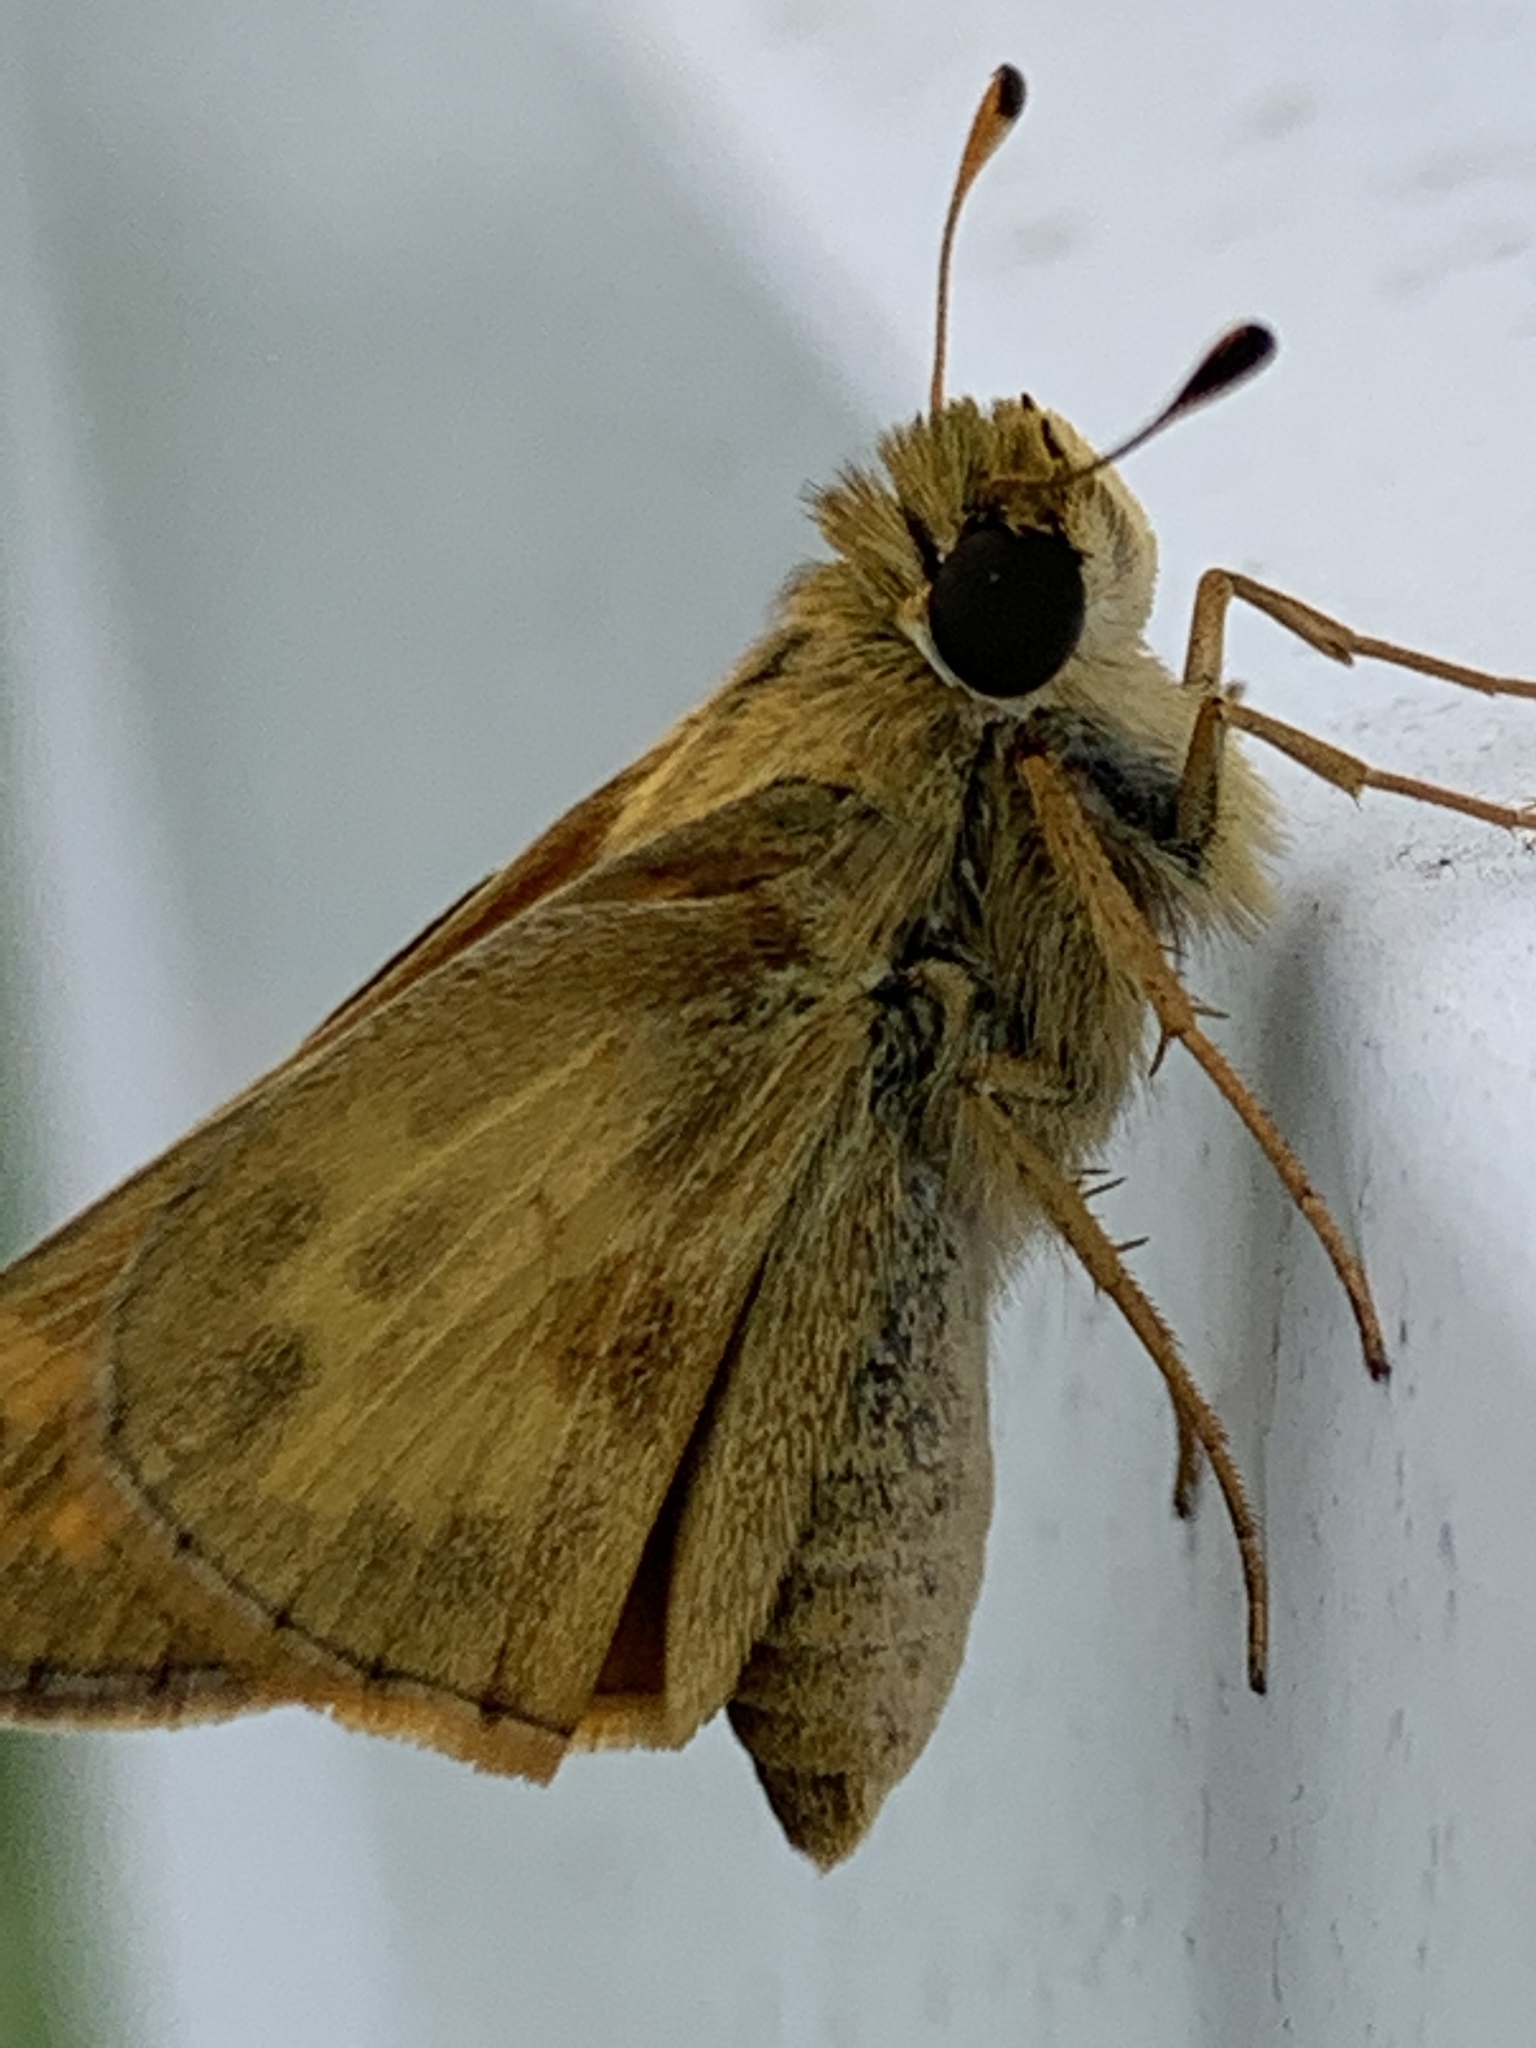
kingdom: Animalia
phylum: Arthropoda
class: Insecta
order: Lepidoptera
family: Hesperiidae
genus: Atalopedes
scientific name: Atalopedes
